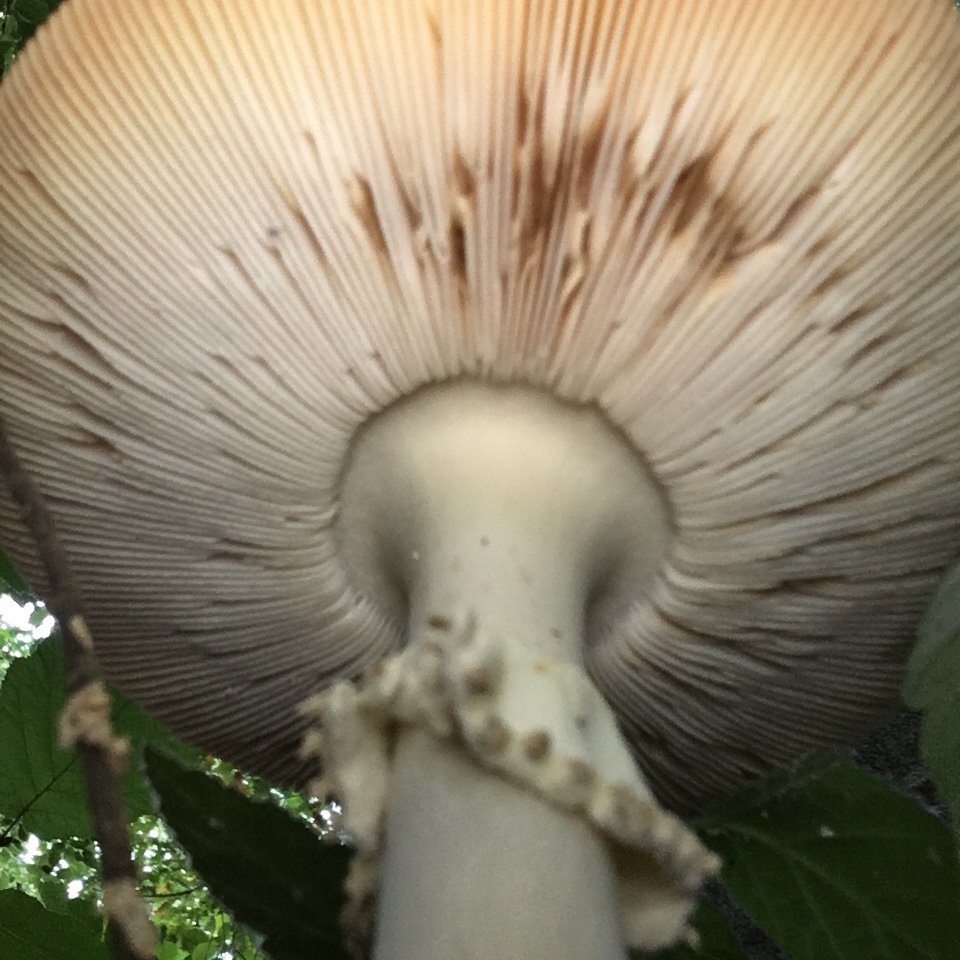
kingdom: Fungi
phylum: Basidiomycota
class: Agaricomycetes
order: Agaricales
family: Amanitaceae
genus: Amanita
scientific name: Amanita muscaria
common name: Fly agaric
